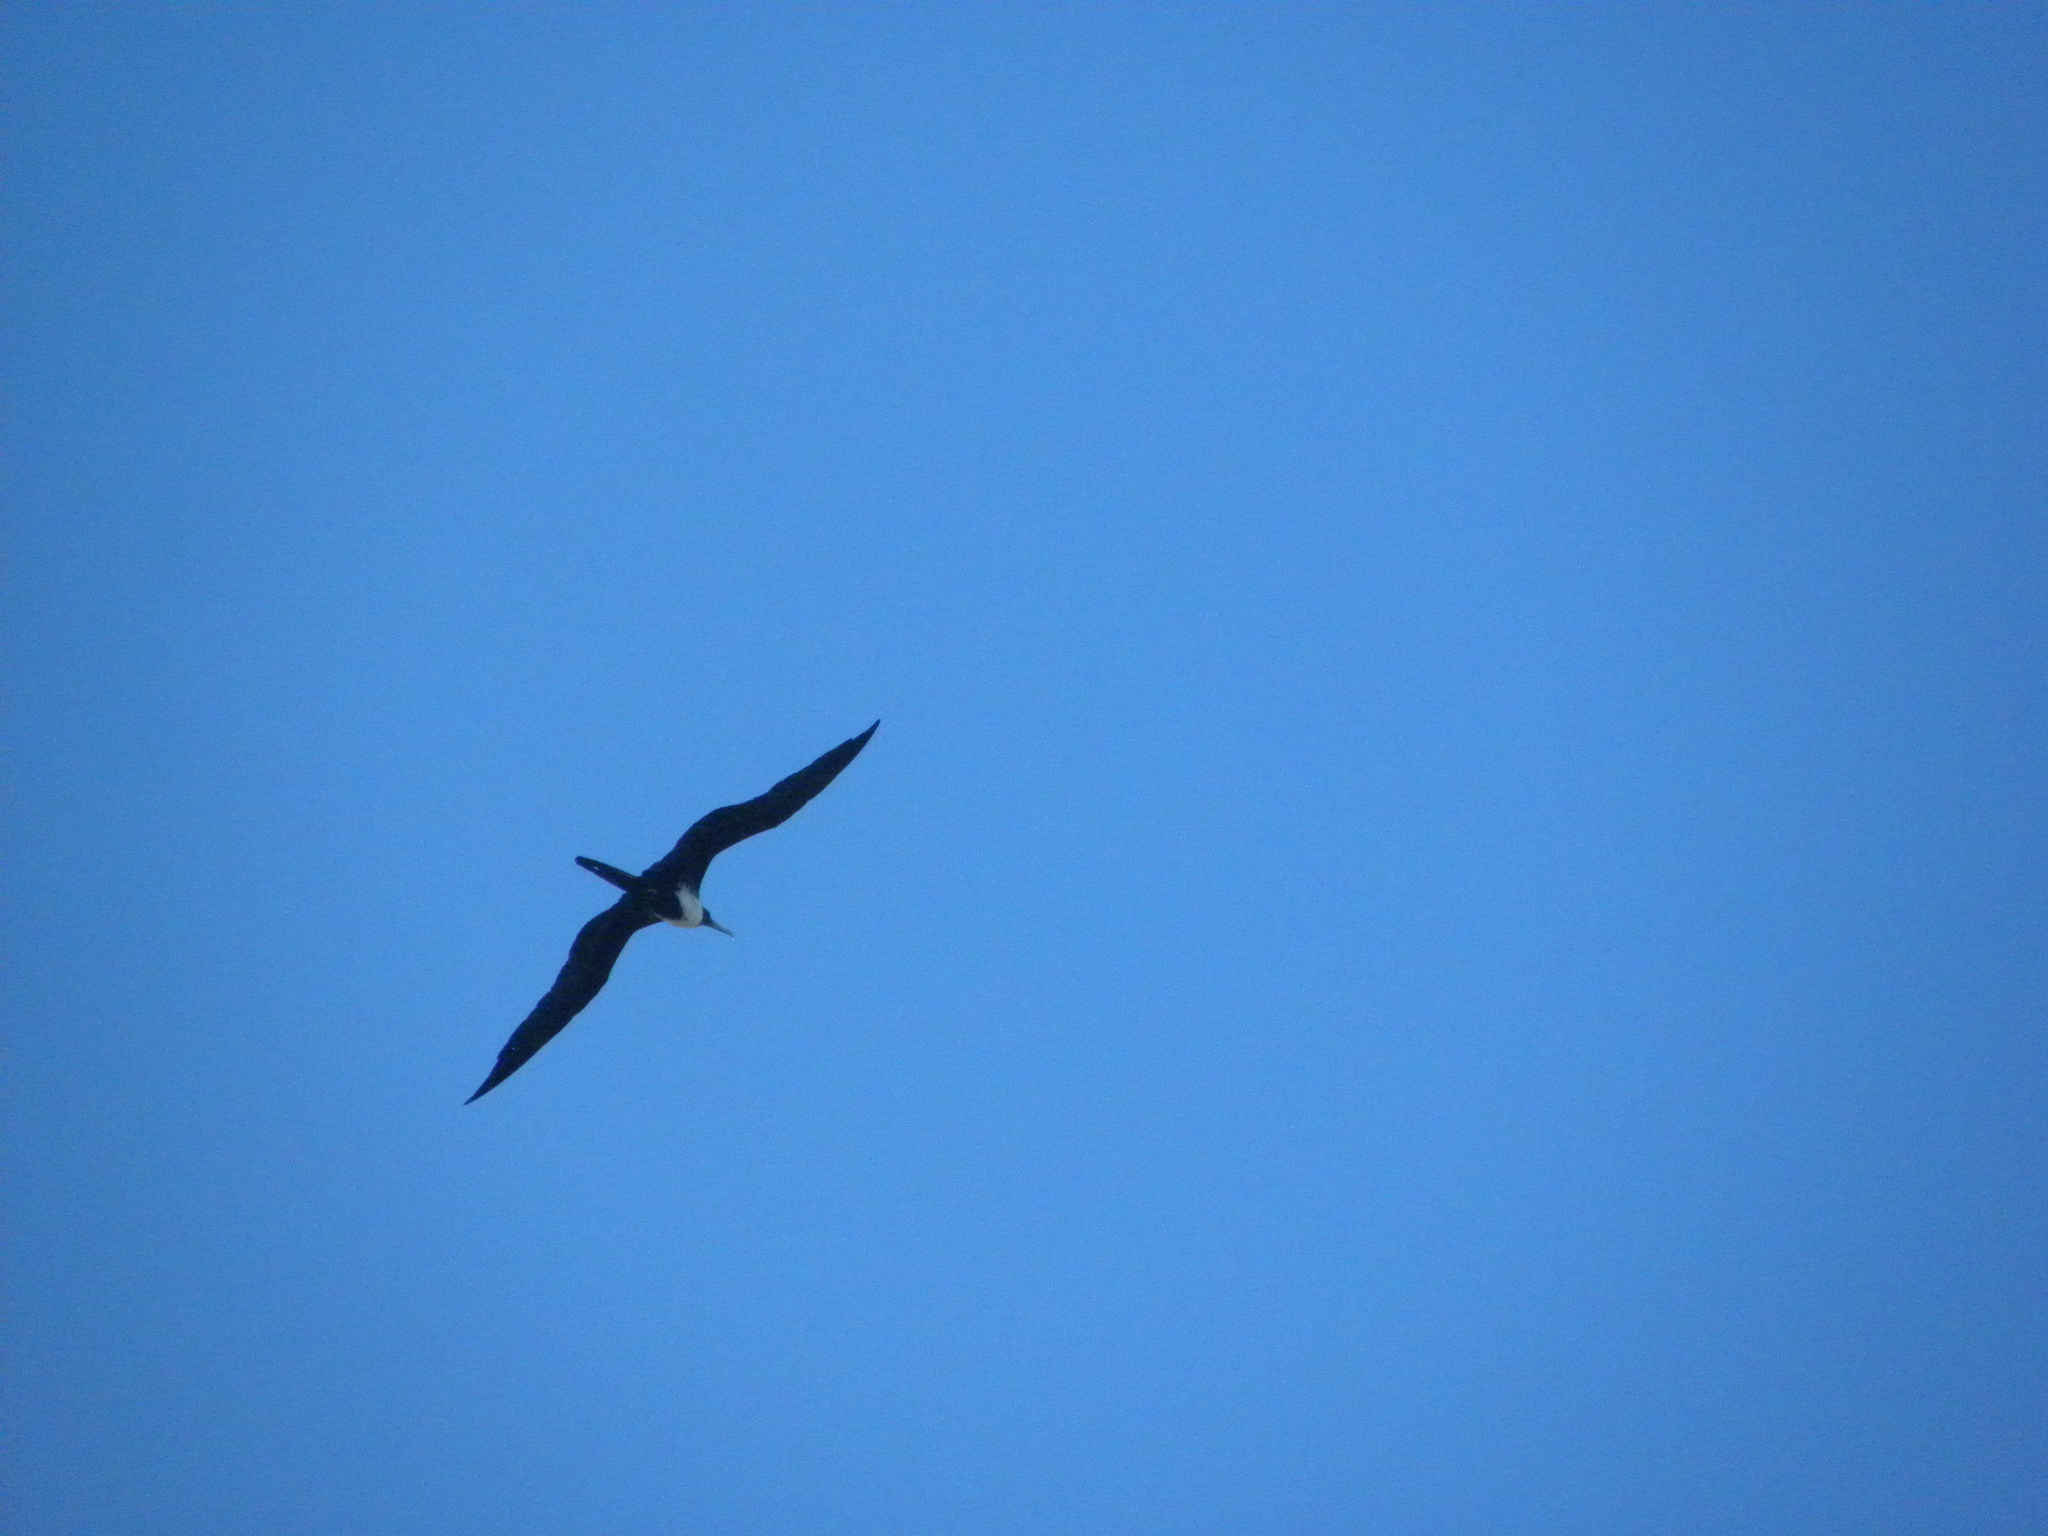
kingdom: Animalia
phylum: Chordata
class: Aves
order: Suliformes
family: Fregatidae
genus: Fregata
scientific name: Fregata magnificens
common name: Magnificent frigatebird
